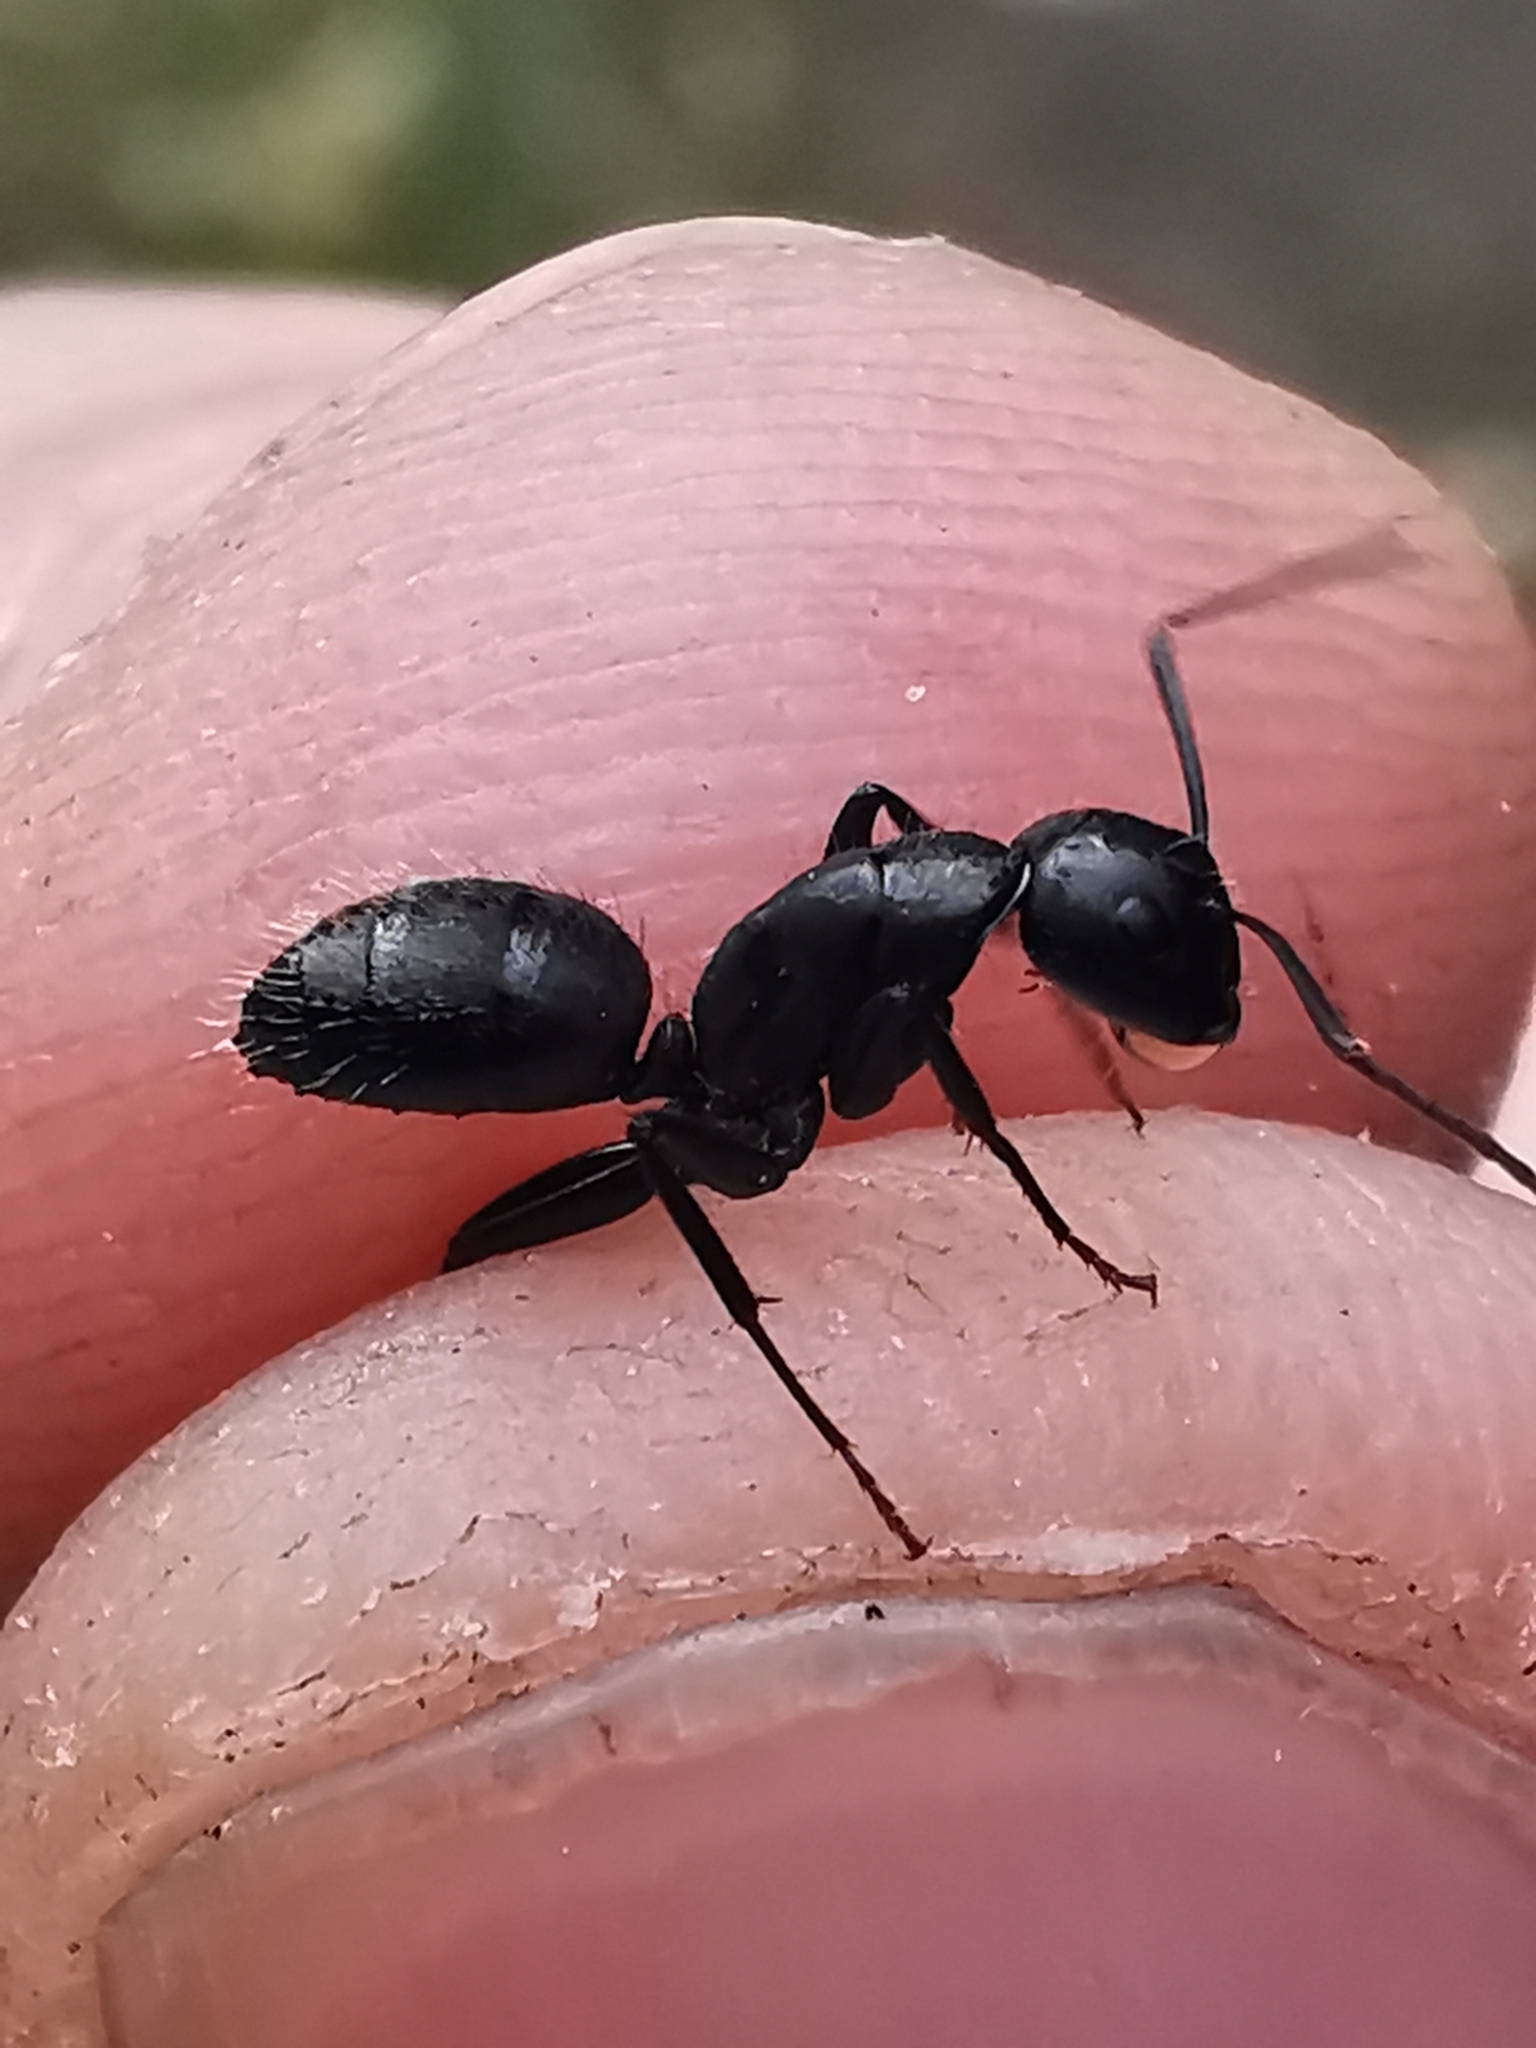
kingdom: Animalia
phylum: Arthropoda
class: Insecta
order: Hymenoptera
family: Formicidae
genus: Camponotus
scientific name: Camponotus vagus
